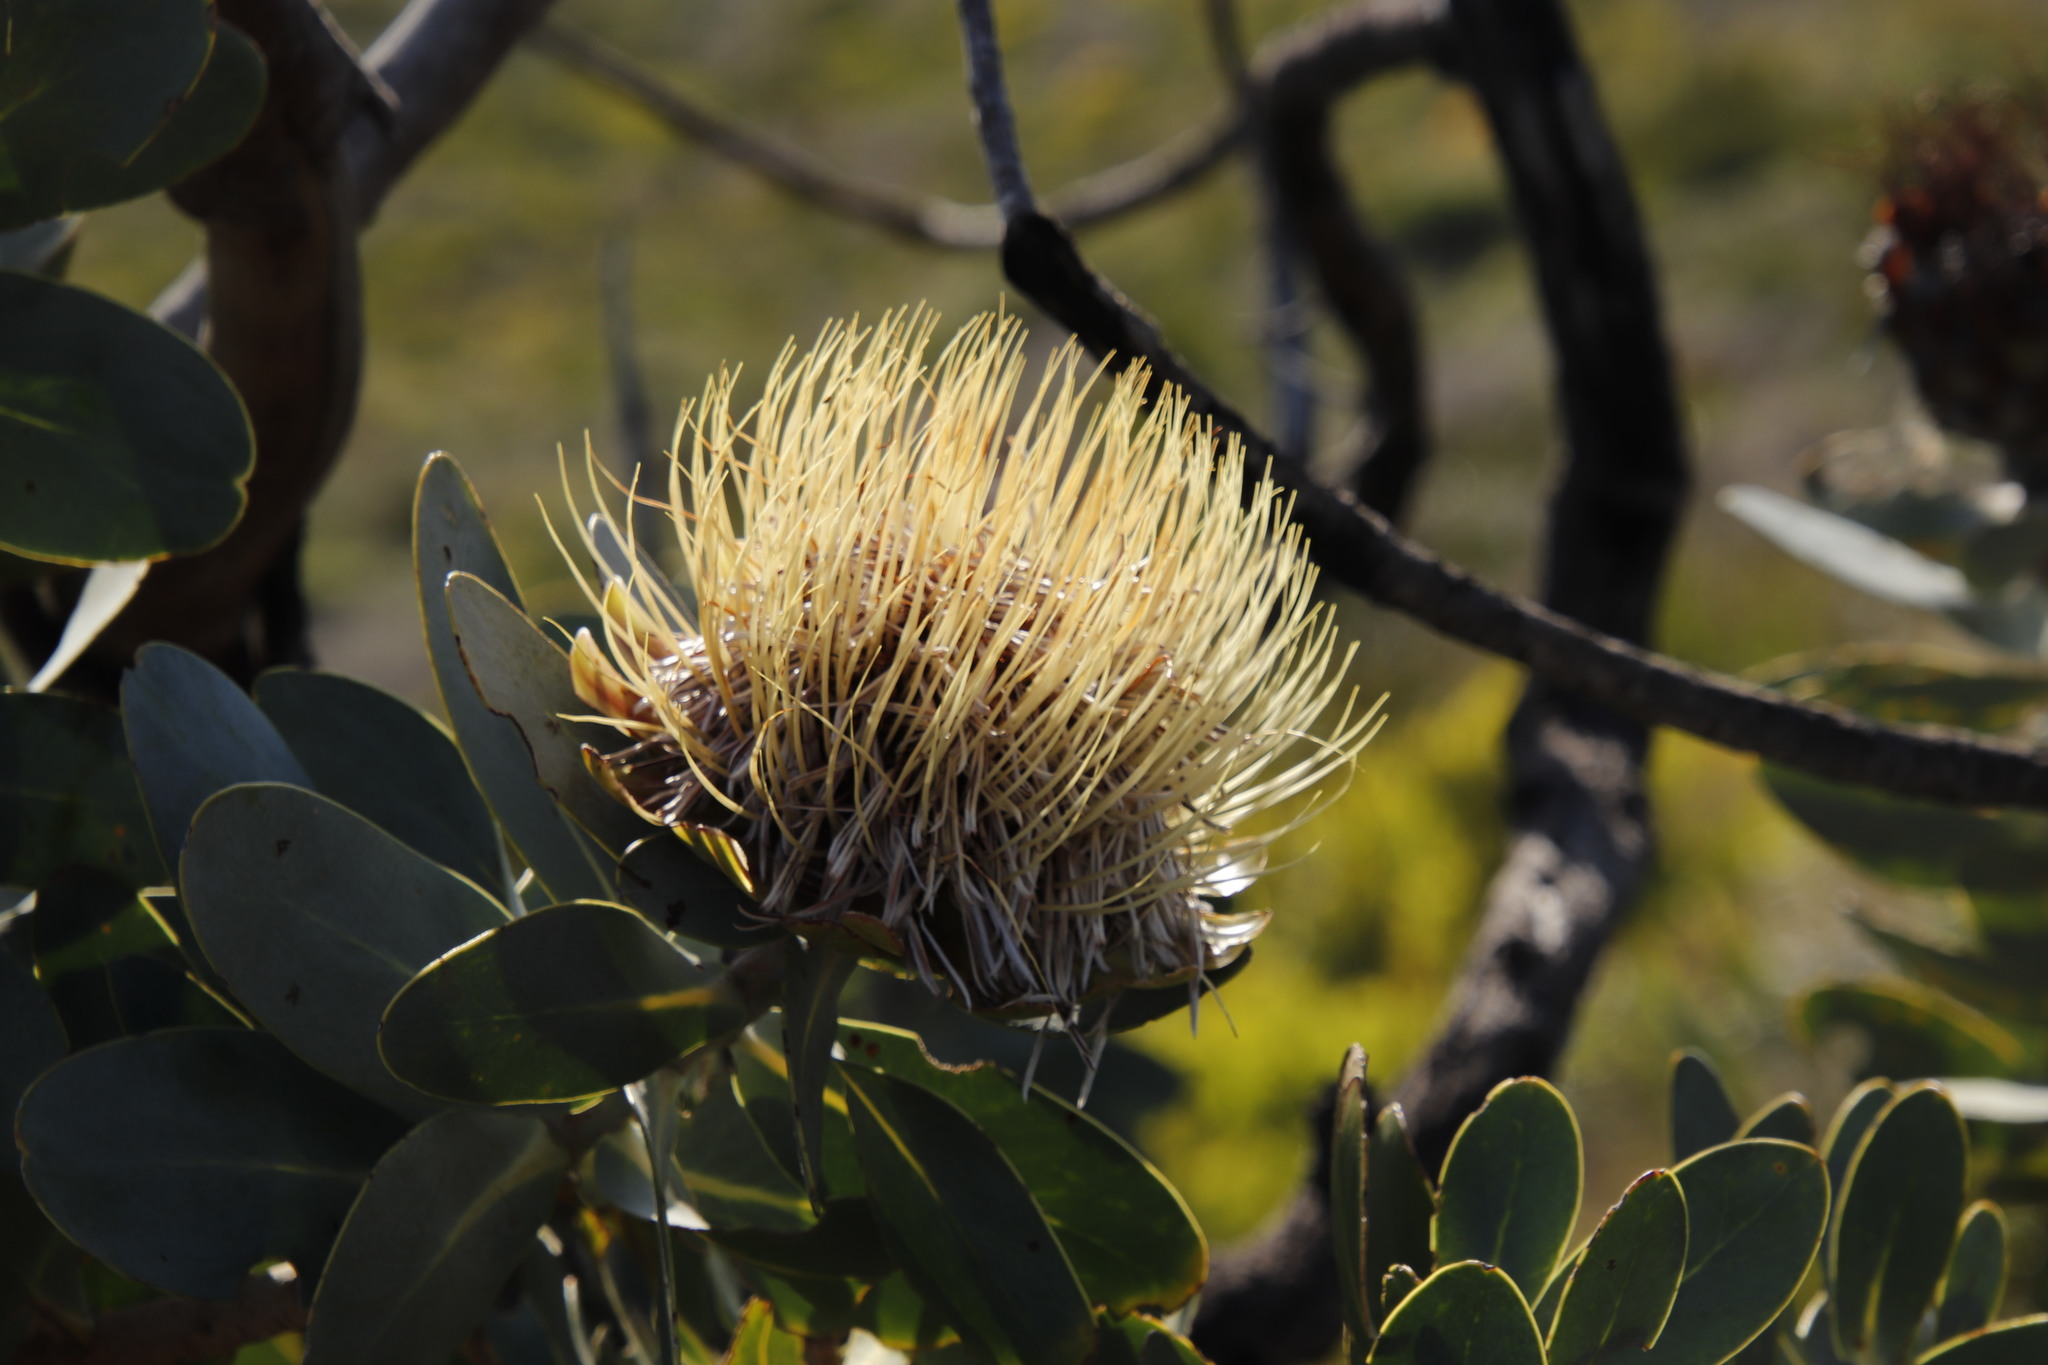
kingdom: Plantae
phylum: Tracheophyta
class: Magnoliopsida
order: Proteales
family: Proteaceae
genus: Protea
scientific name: Protea nitida
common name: Tree protea
